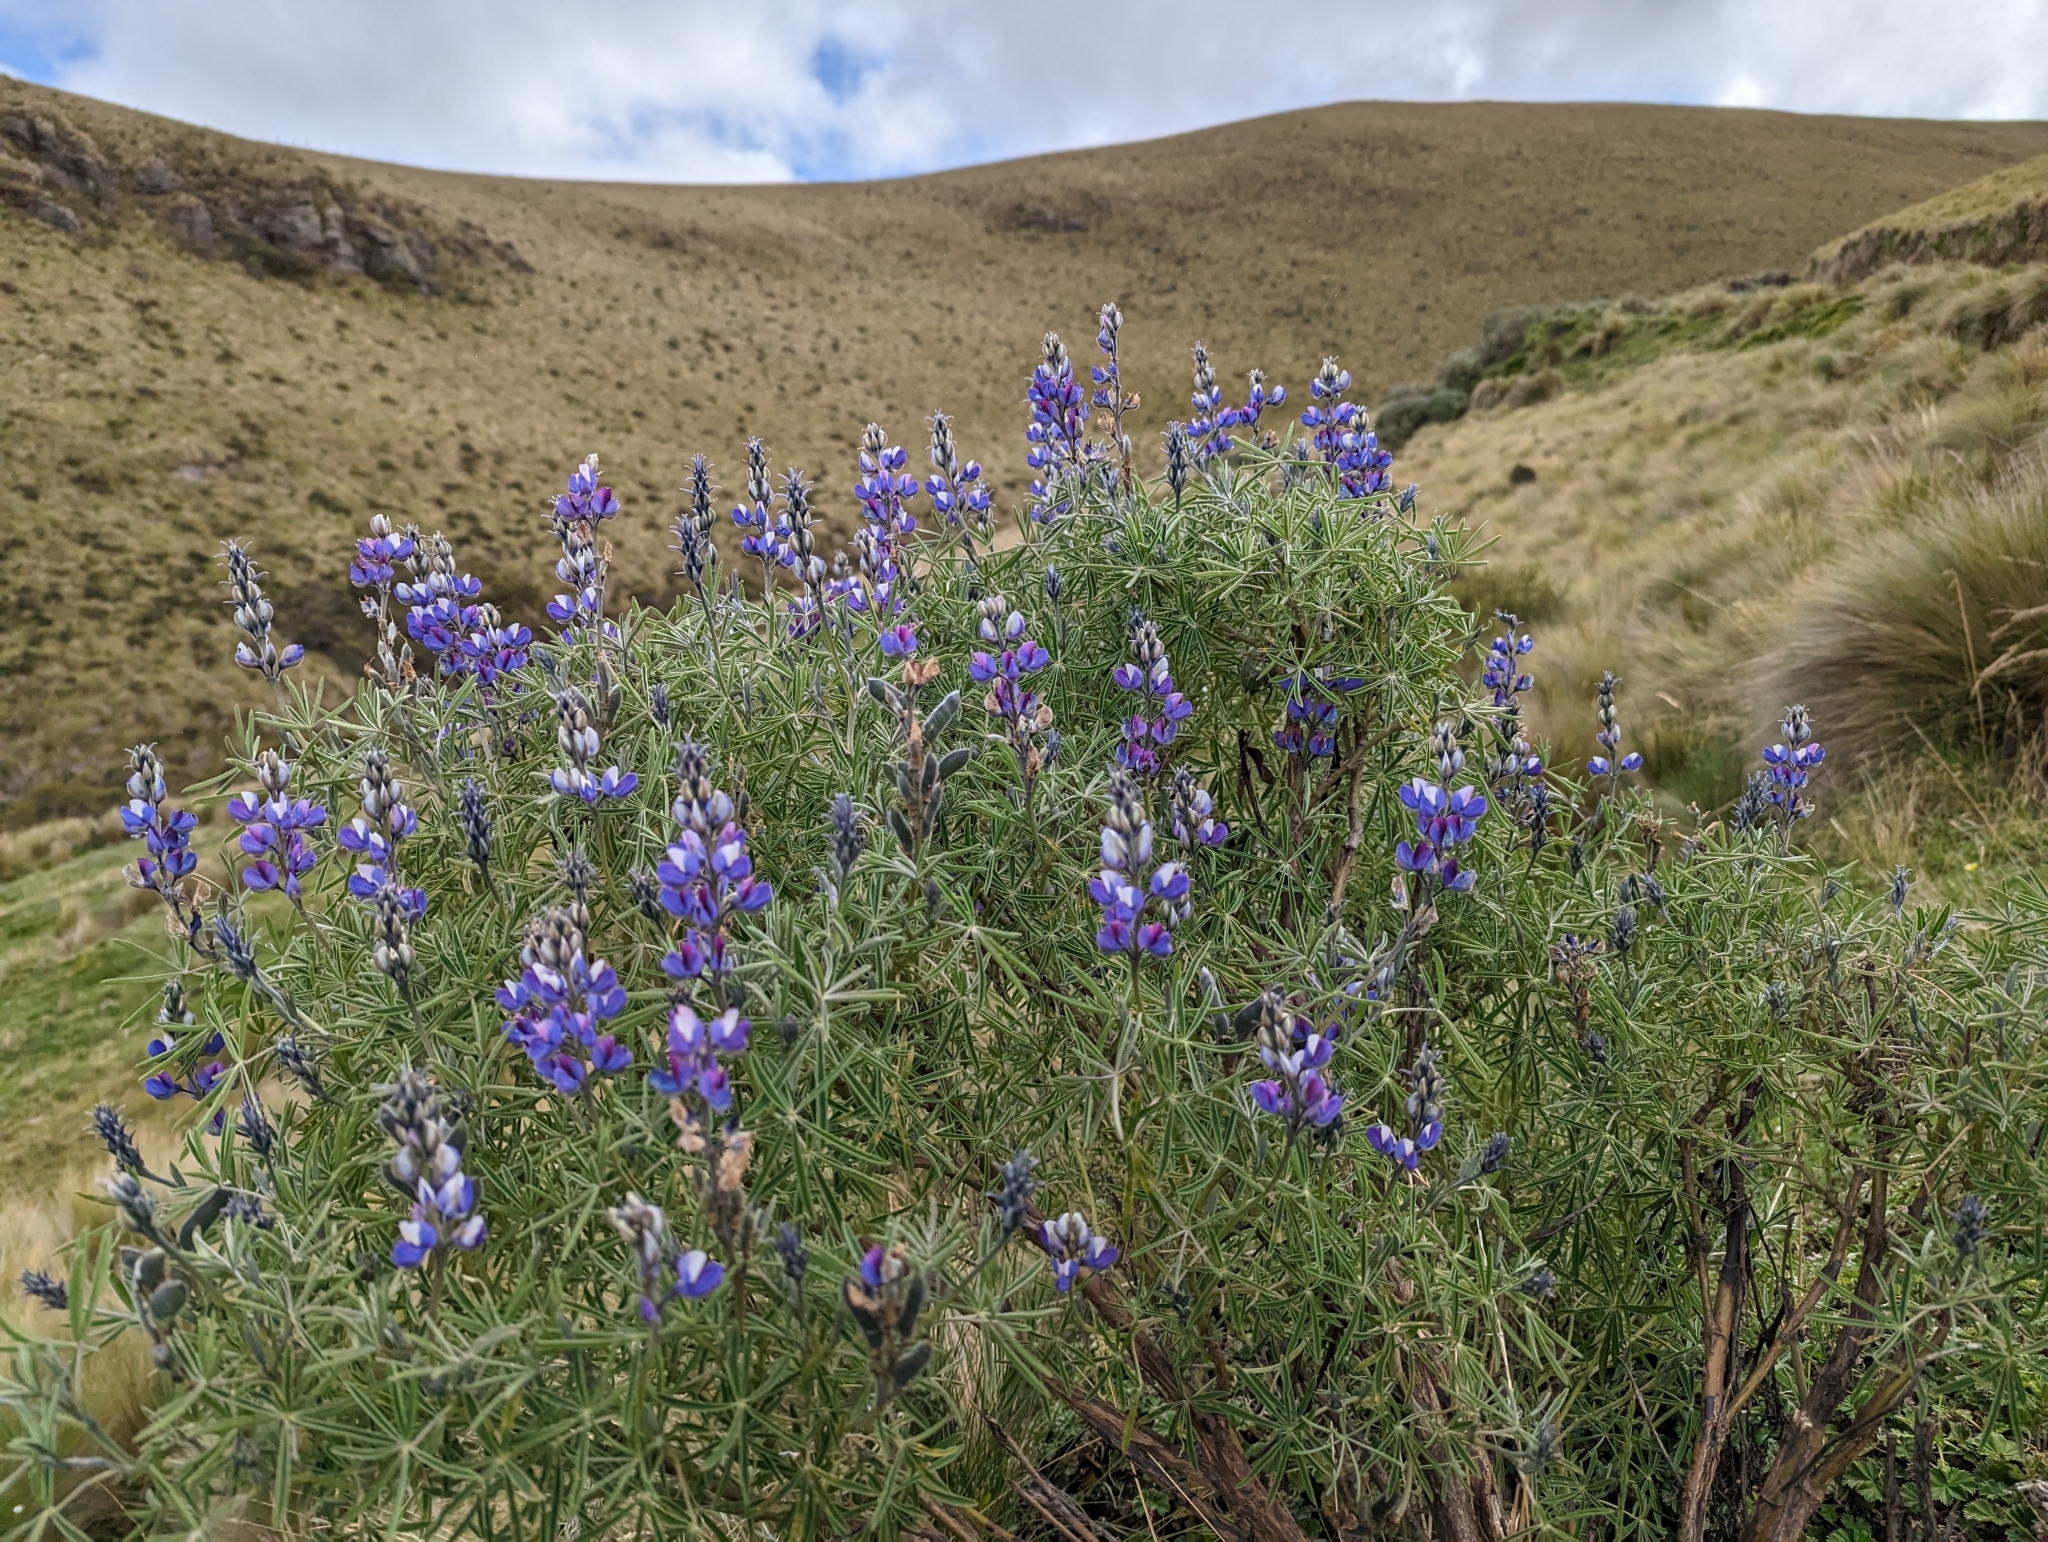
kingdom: Plantae
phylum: Tracheophyta
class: Magnoliopsida
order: Fabales
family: Fabaceae
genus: Lupinus
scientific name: Lupinus pubescens
